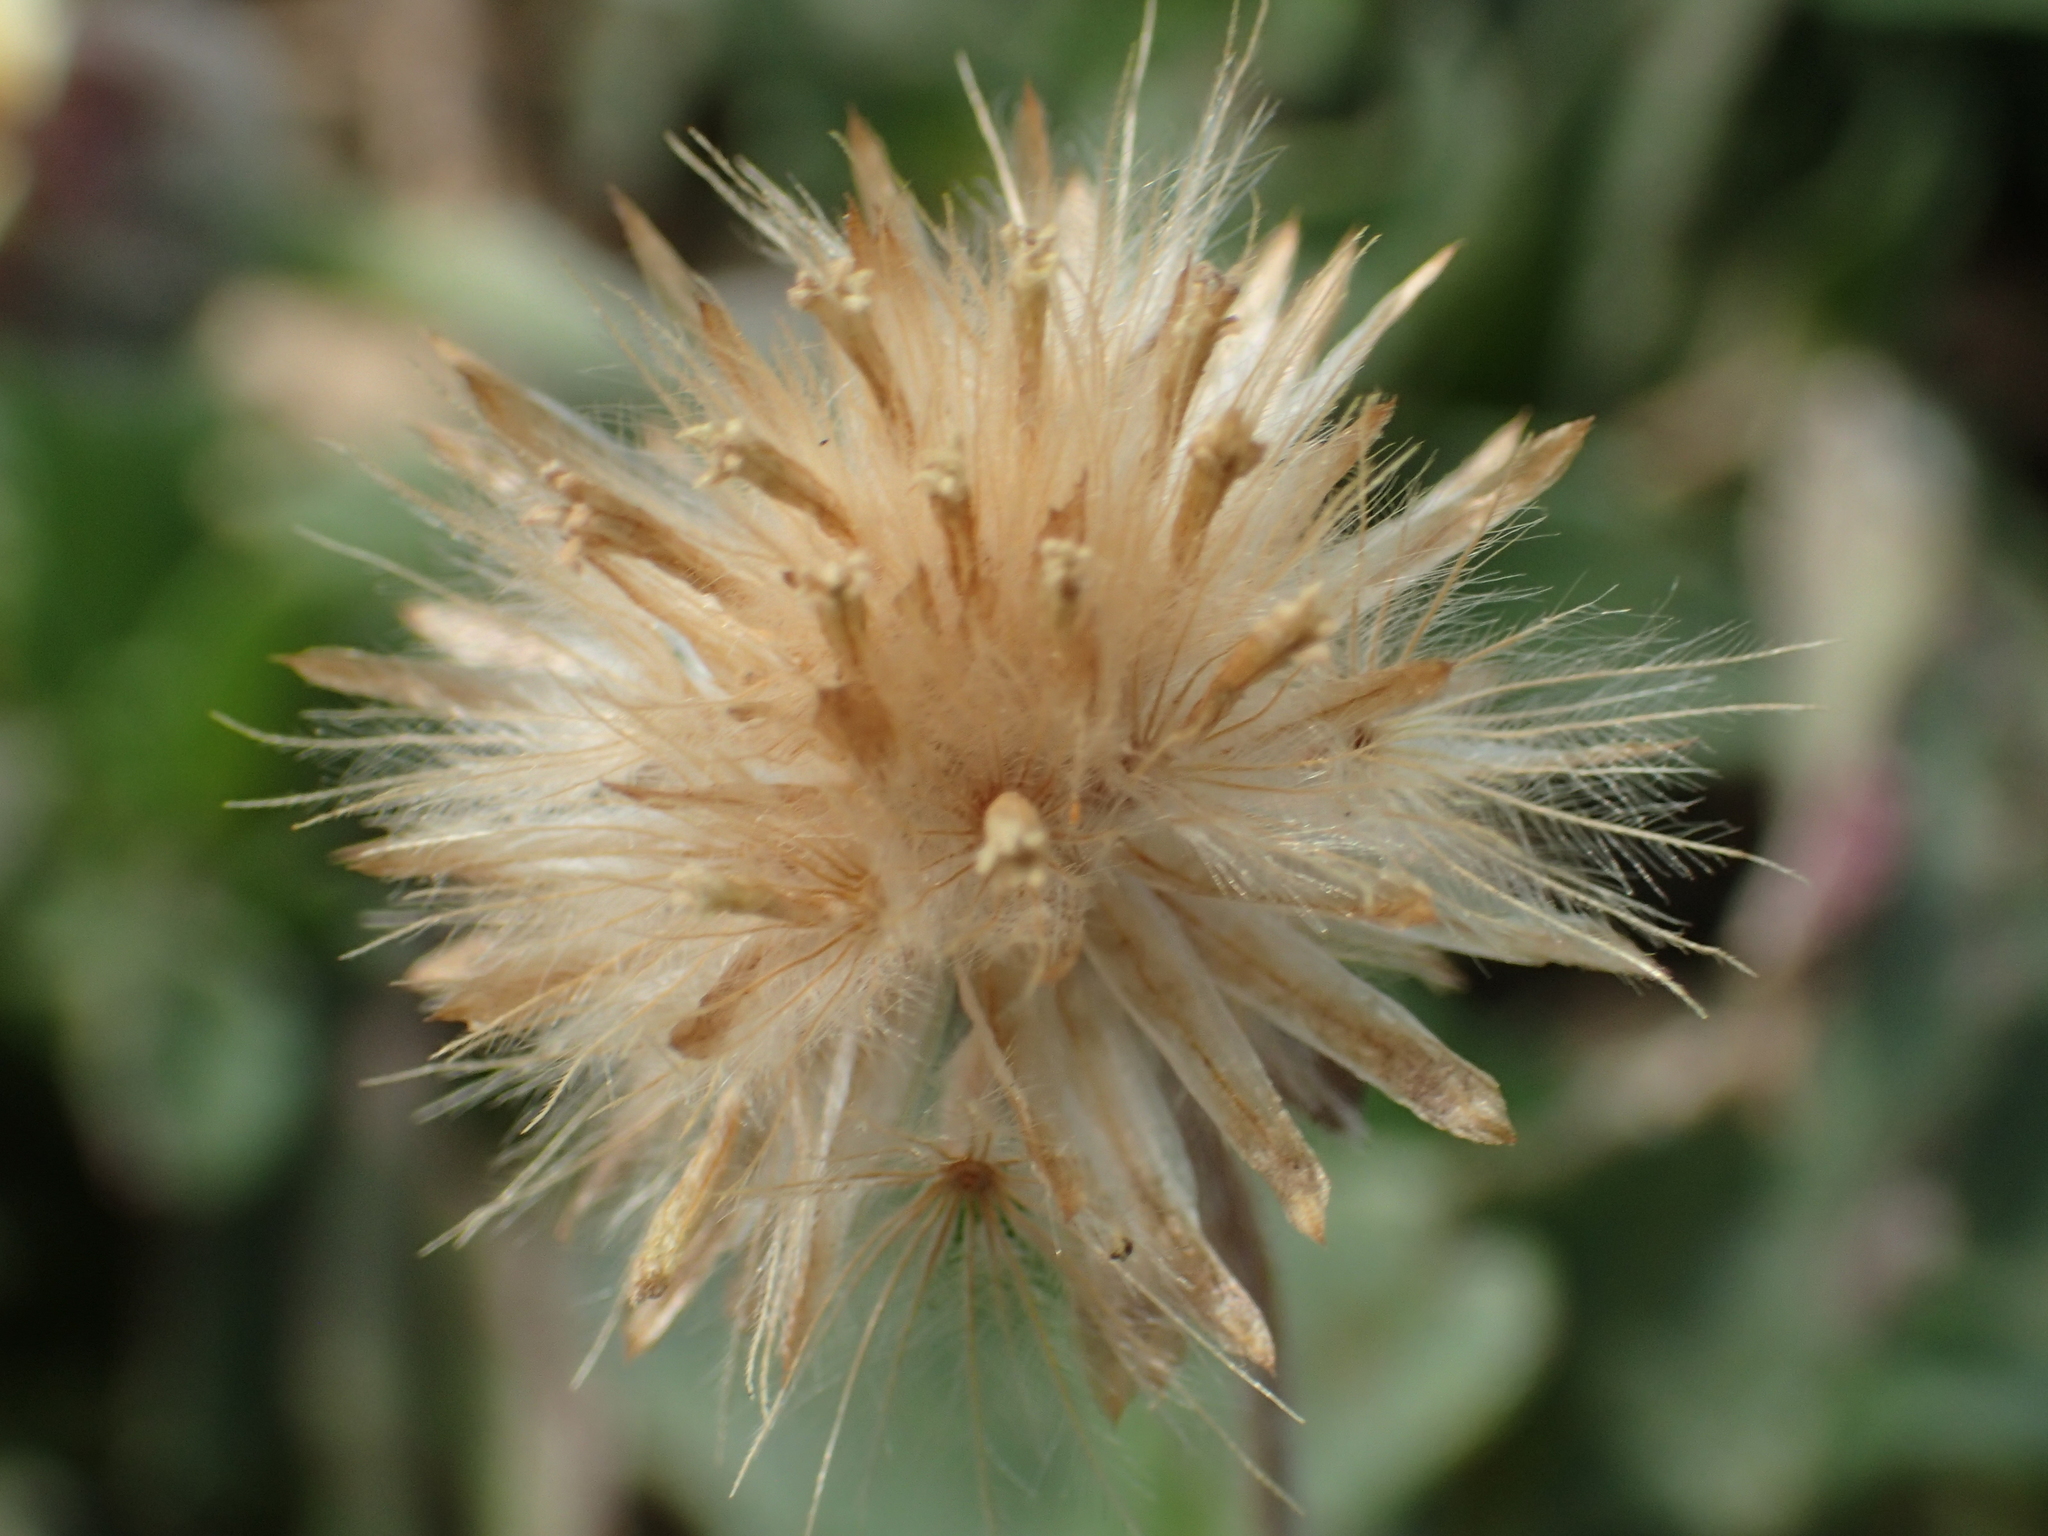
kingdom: Plantae
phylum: Tracheophyta
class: Magnoliopsida
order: Asterales
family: Asteraceae
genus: Tridax
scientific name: Tridax procumbens
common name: Coatbuttons
